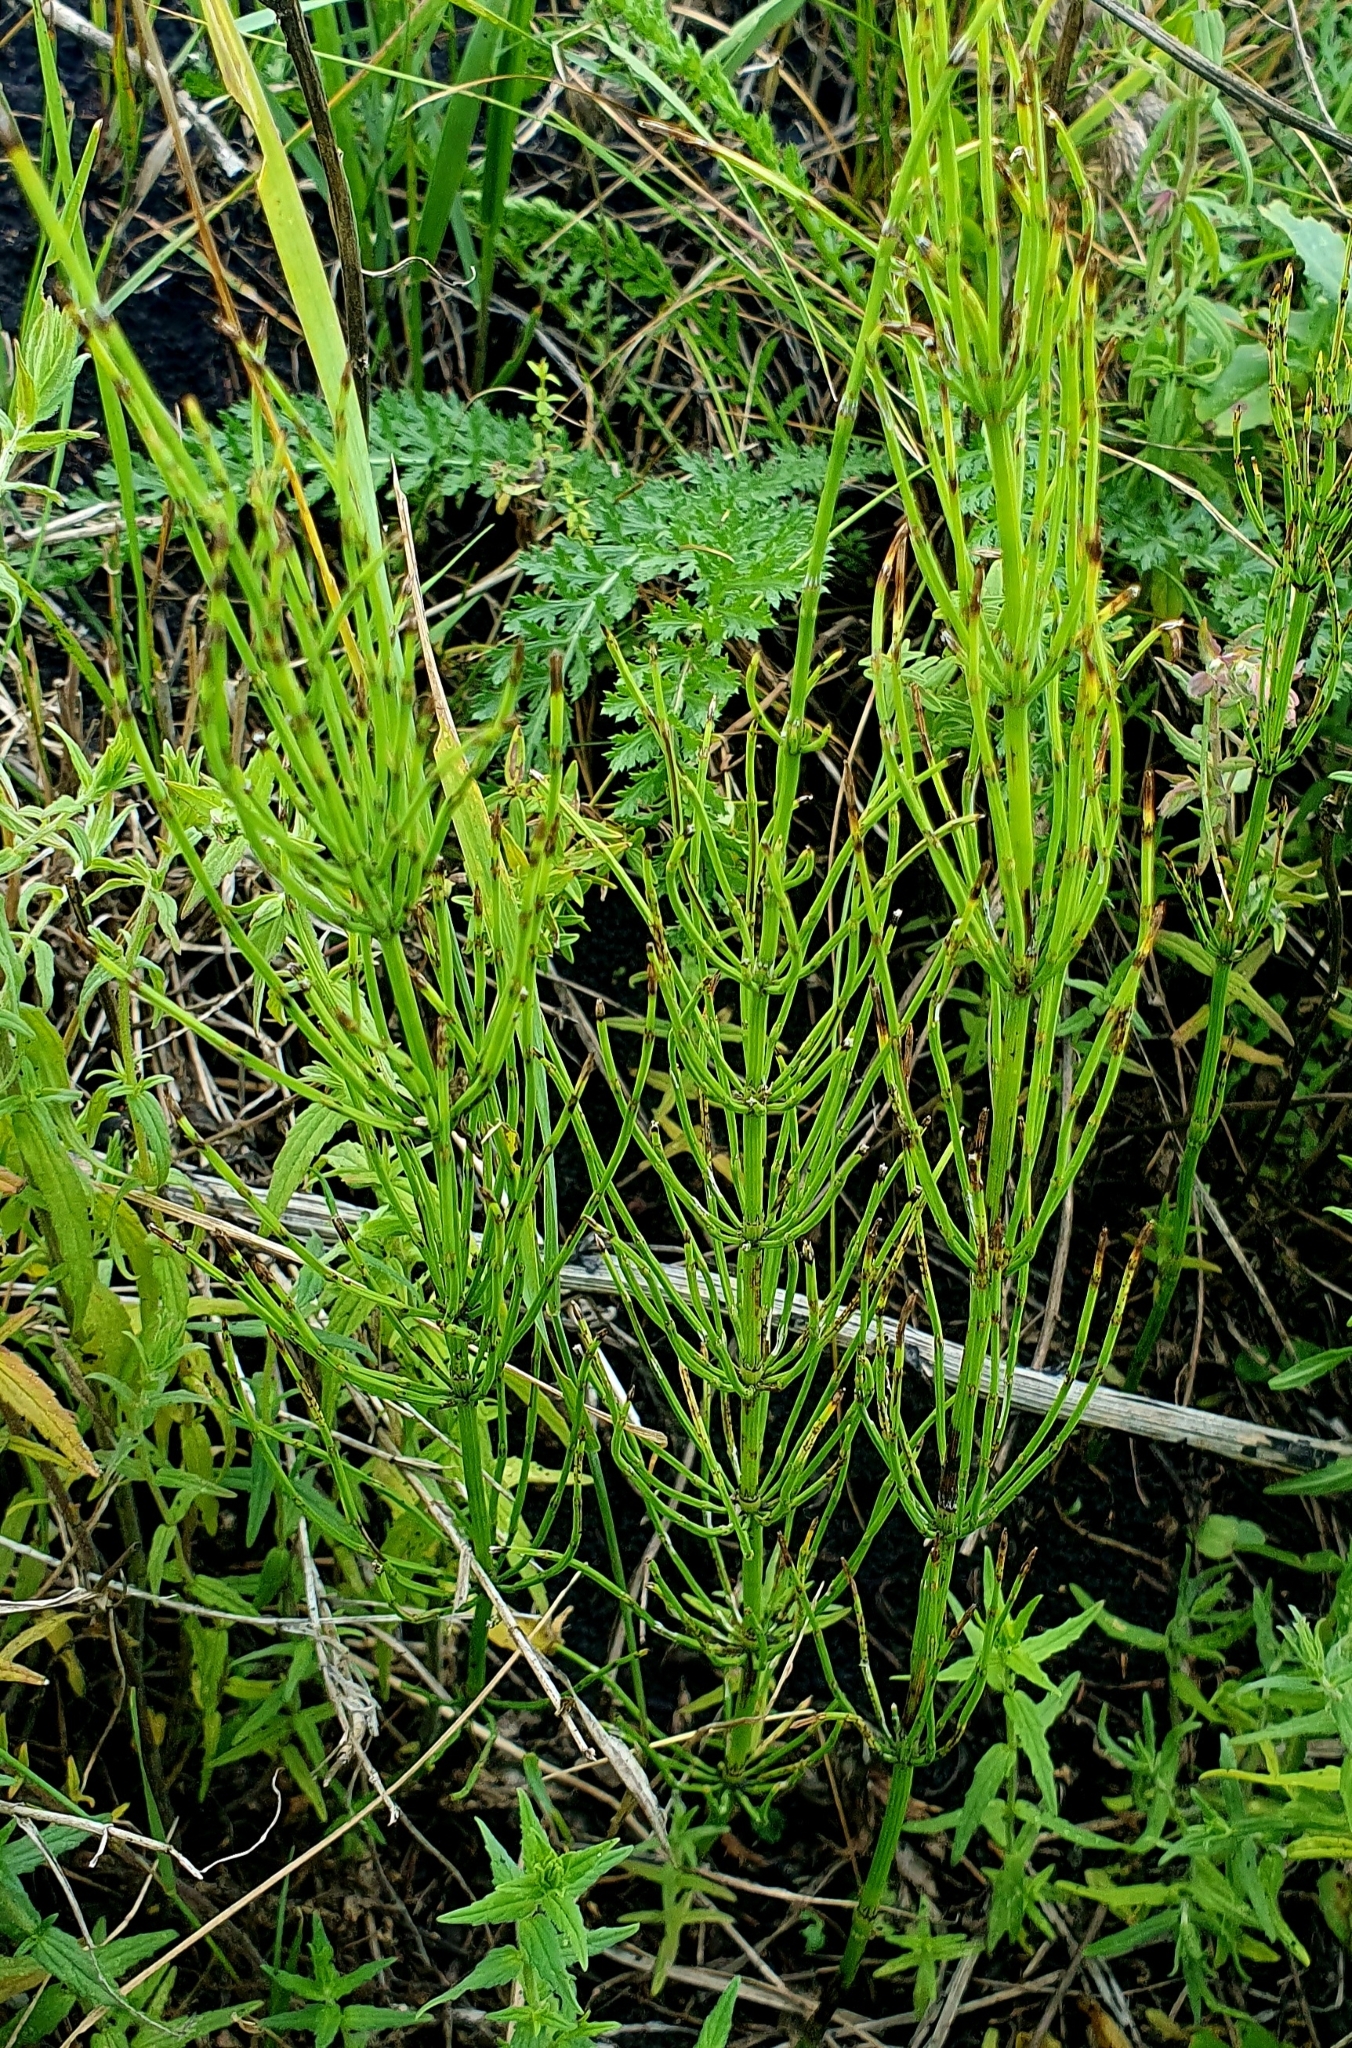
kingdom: Plantae
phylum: Tracheophyta
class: Polypodiopsida
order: Equisetales
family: Equisetaceae
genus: Equisetum
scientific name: Equisetum arvense
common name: Field horsetail
